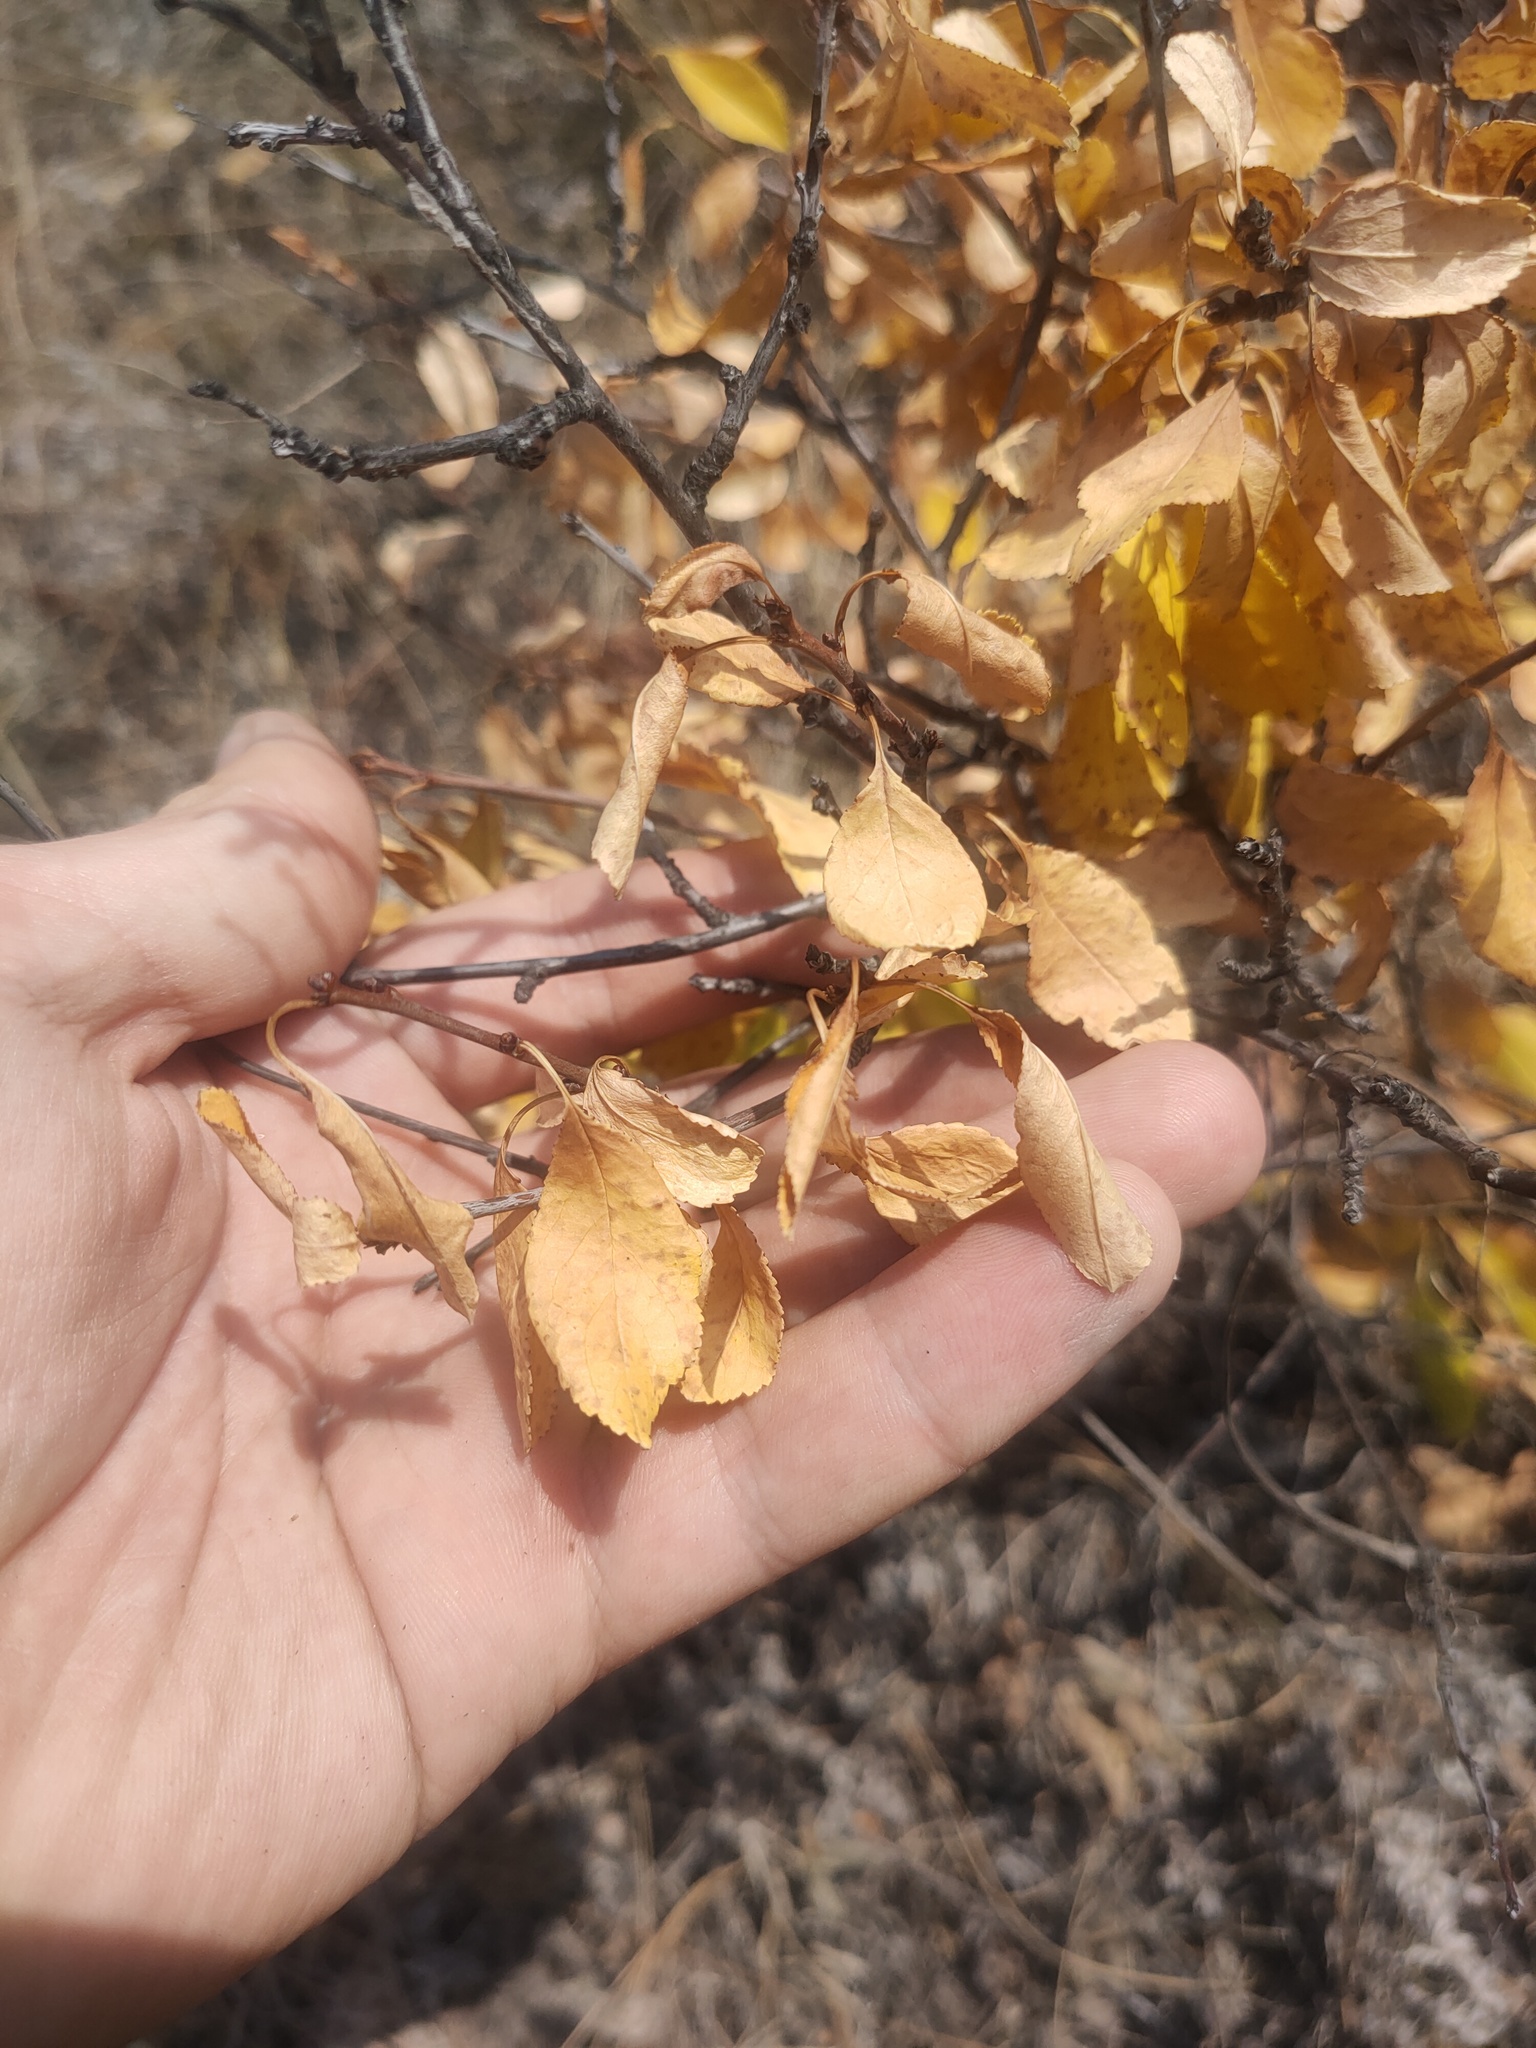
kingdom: Plantae
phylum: Tracheophyta
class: Magnoliopsida
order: Rosales
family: Rosaceae
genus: Prunus
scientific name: Prunus fruticosa
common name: European dwarf cherry
